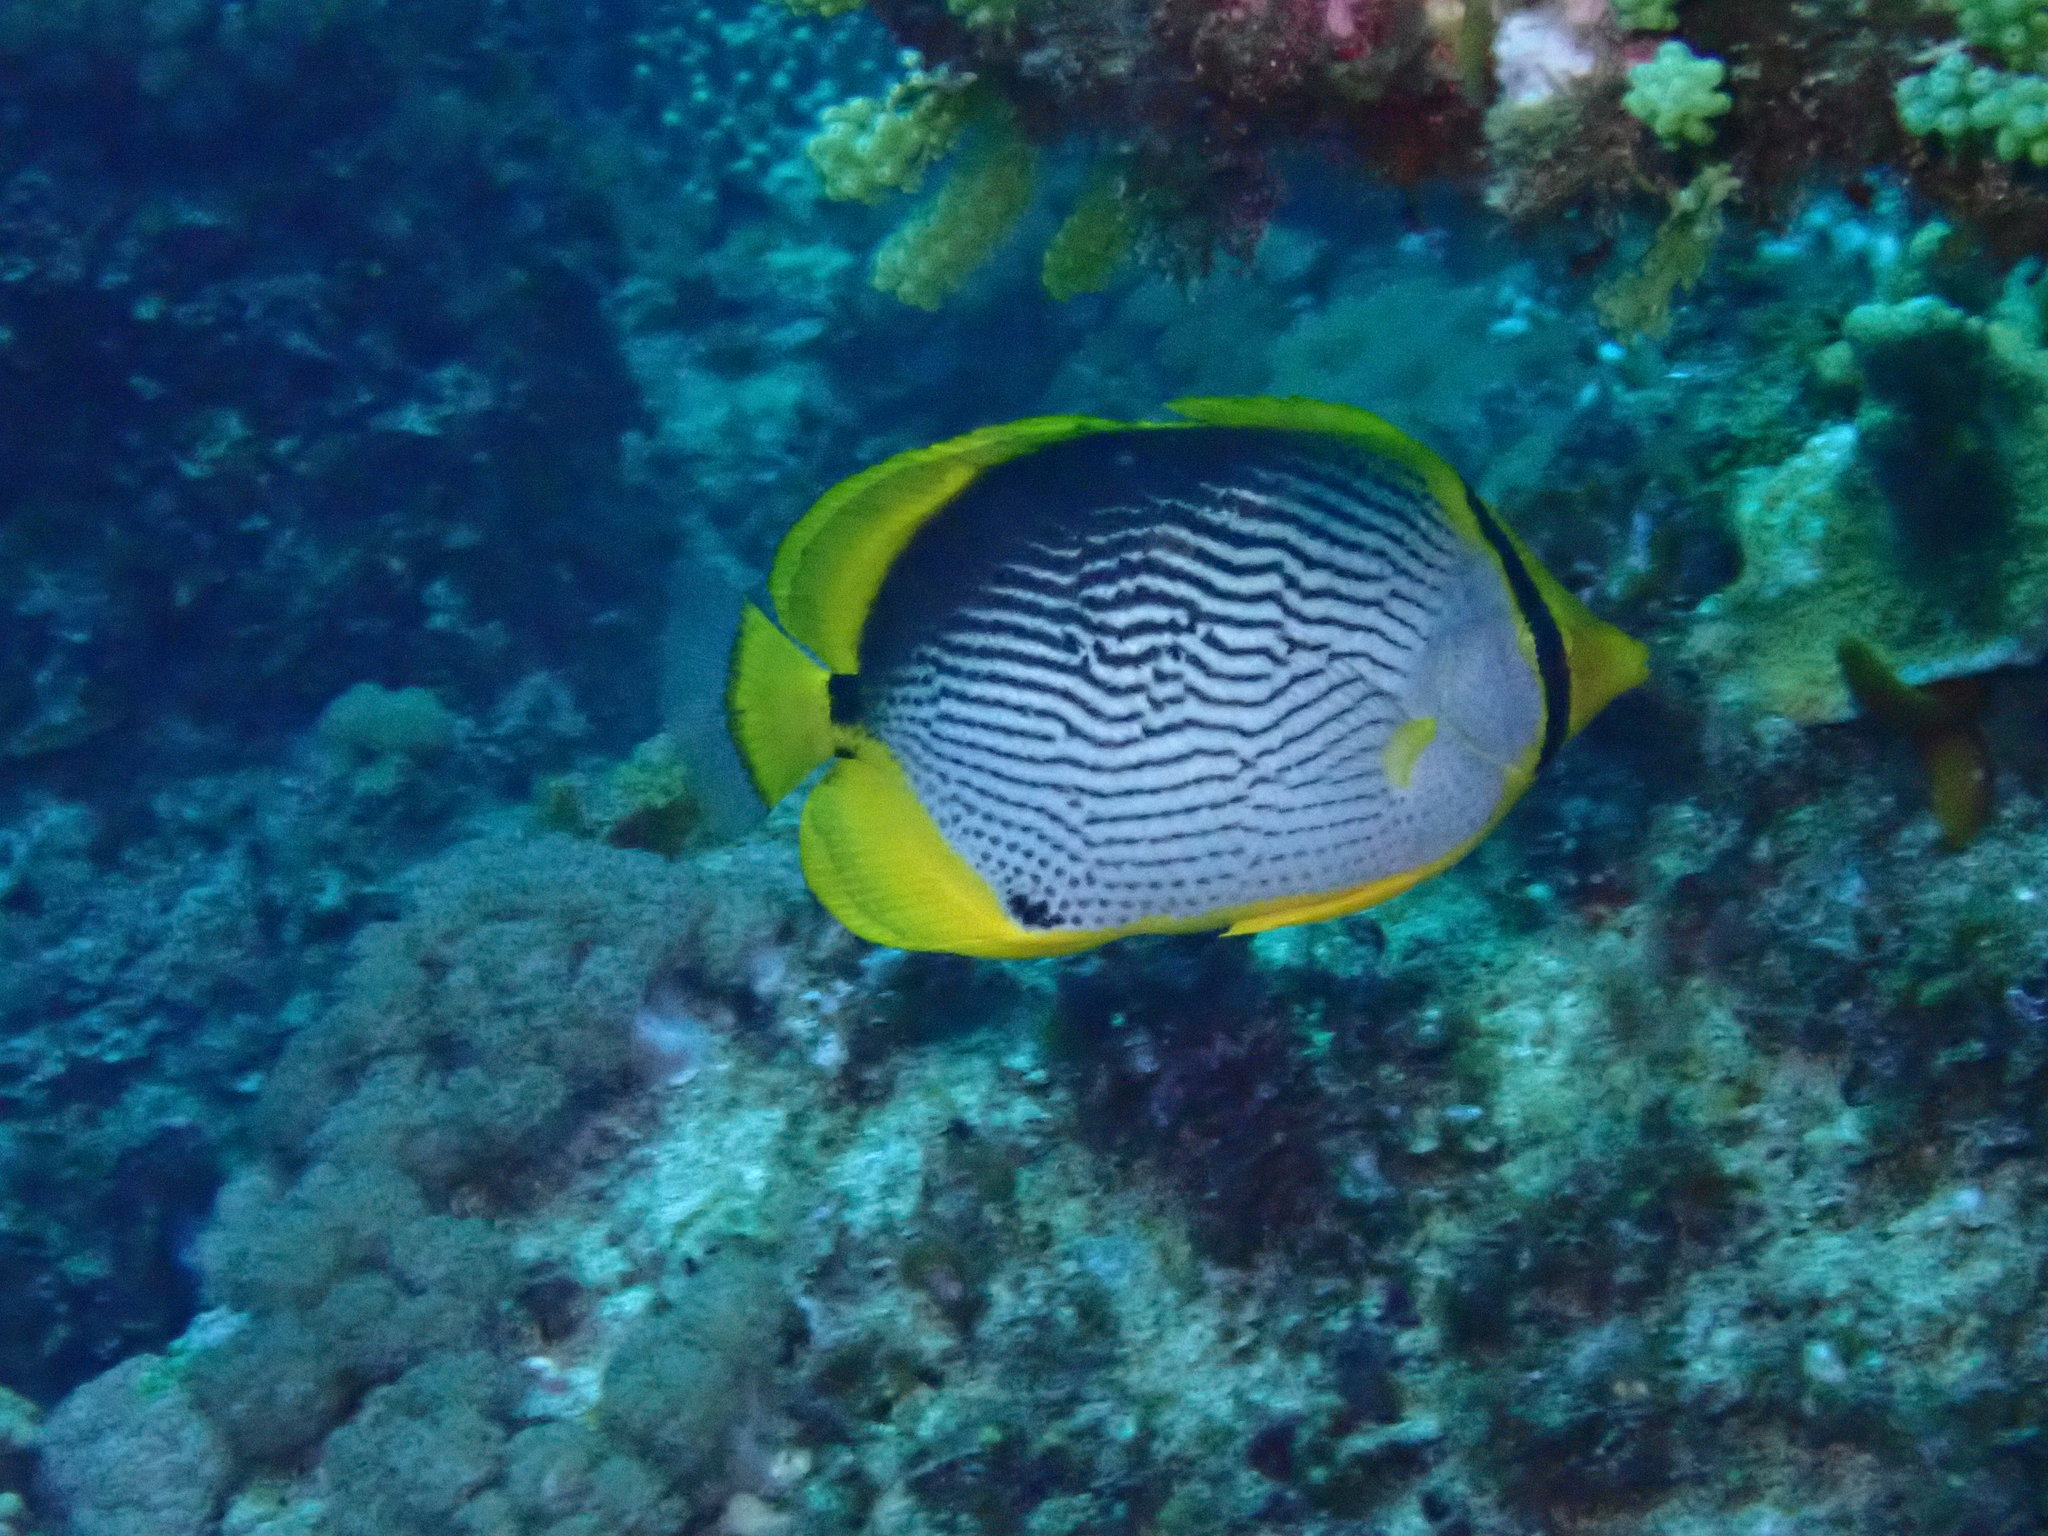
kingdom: Animalia
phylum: Chordata
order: Perciformes
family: Chaetodontidae
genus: Chaetodon
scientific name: Chaetodon melannotus
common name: Blackback butterflyfish
